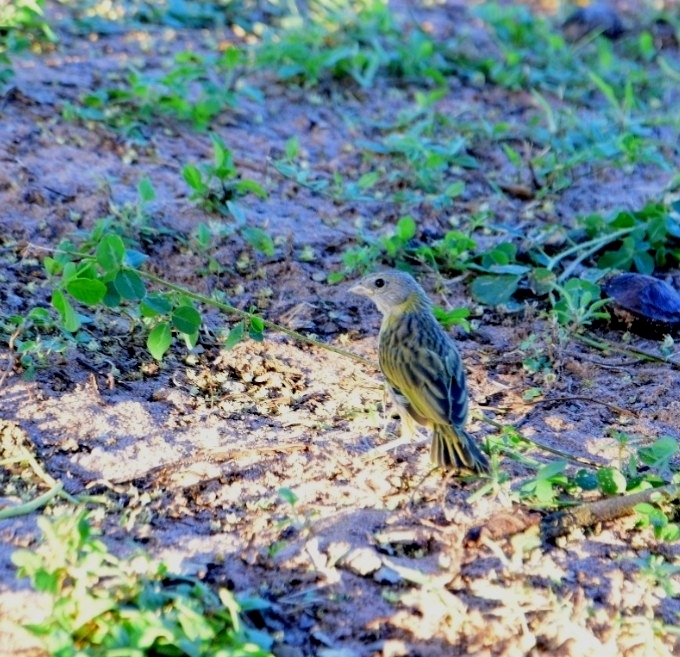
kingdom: Animalia
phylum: Chordata
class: Aves
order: Passeriformes
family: Thraupidae
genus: Sicalis
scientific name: Sicalis flaveola
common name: Saffron finch
